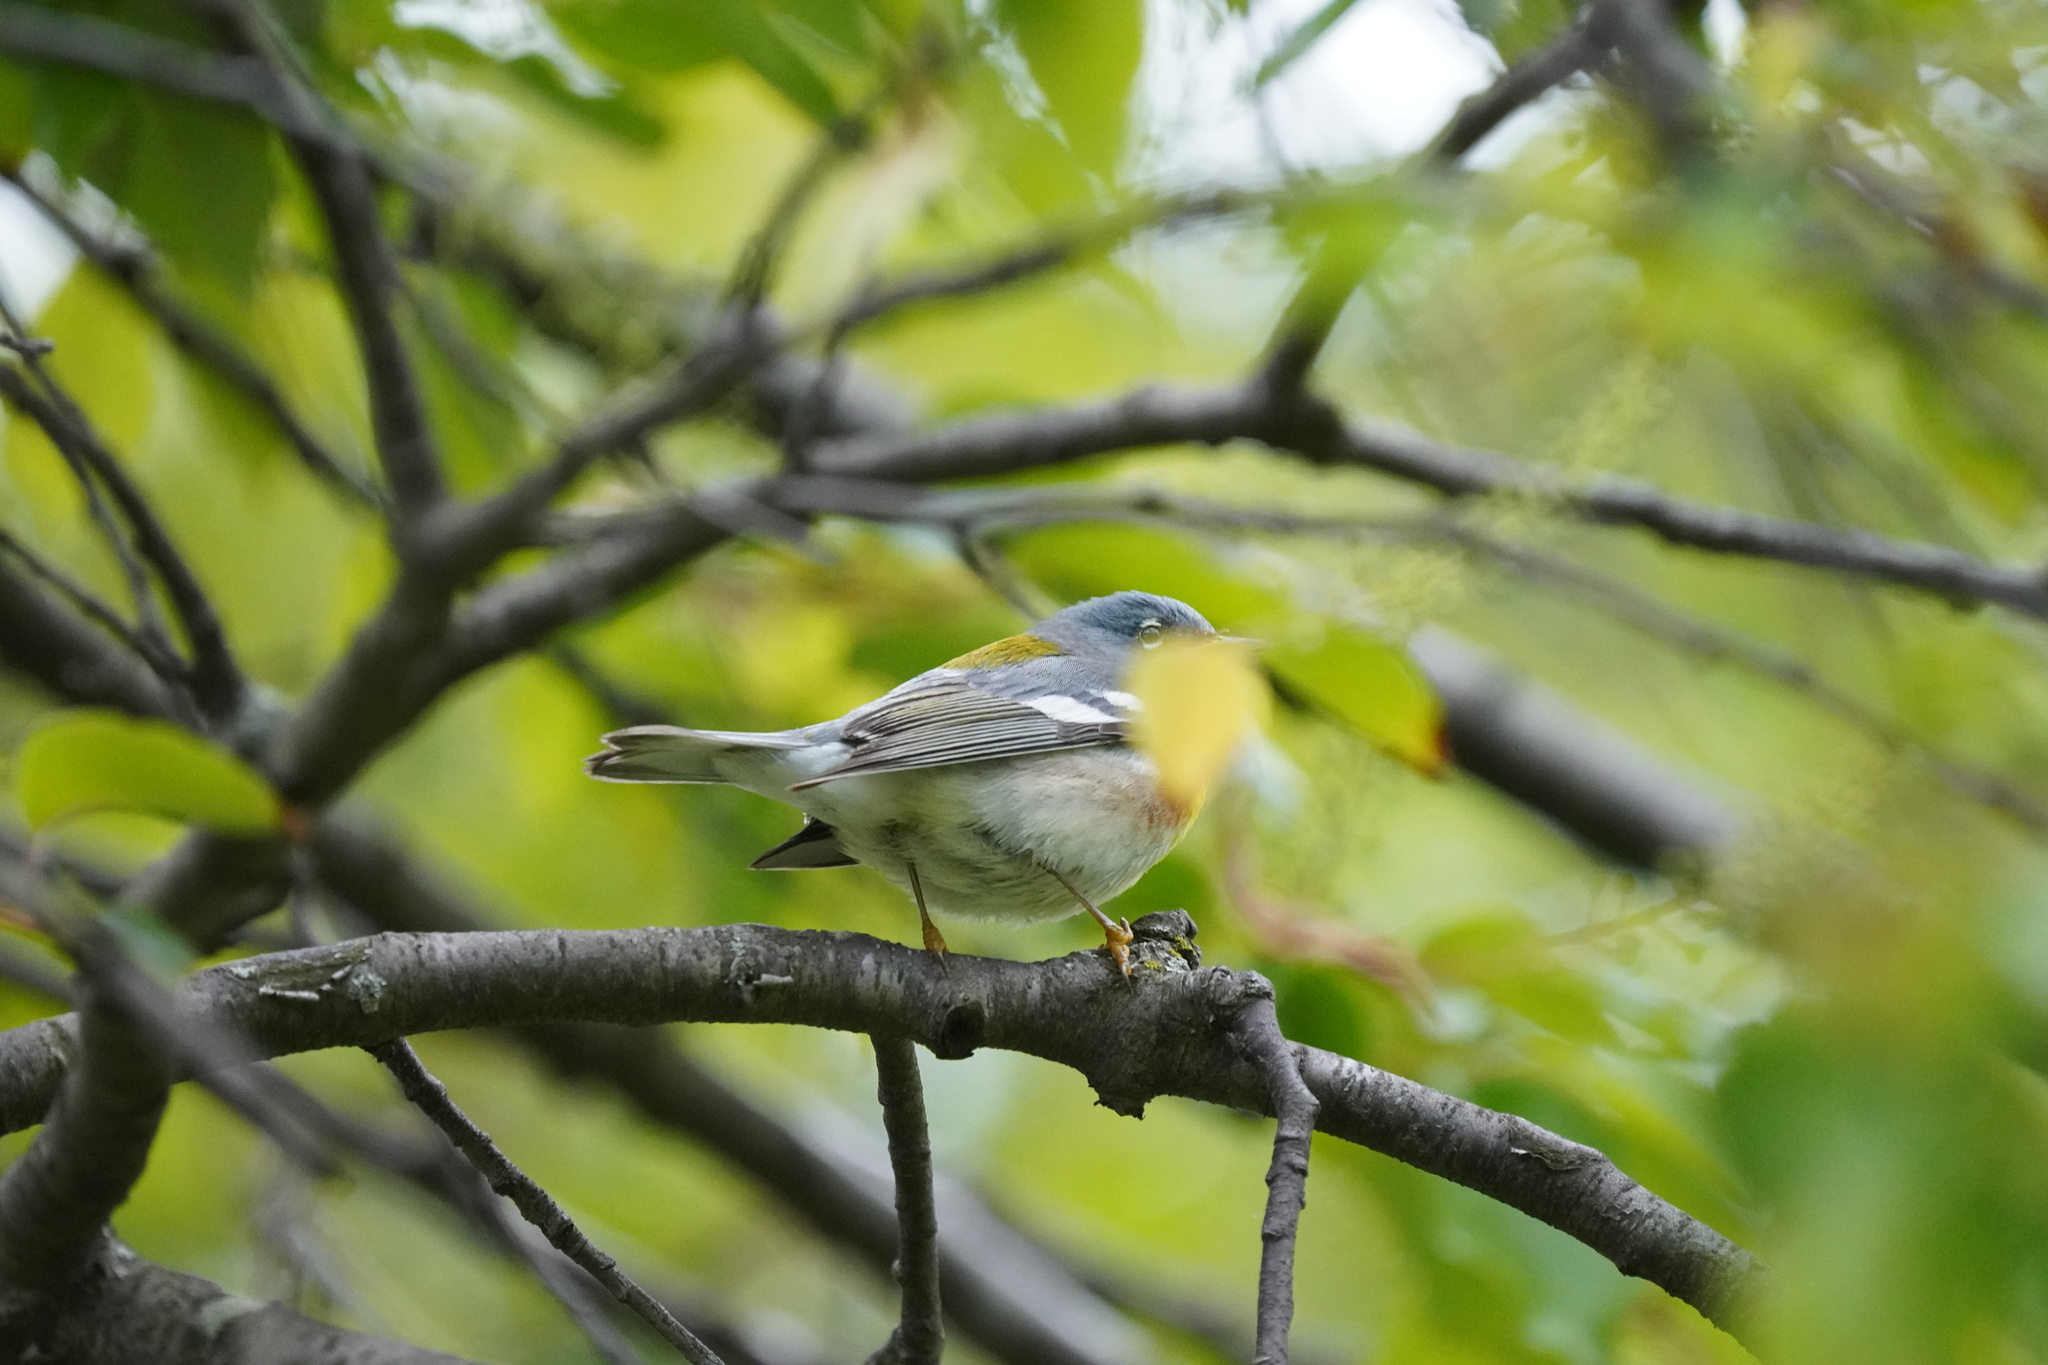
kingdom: Animalia
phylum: Chordata
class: Aves
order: Passeriformes
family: Parulidae
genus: Setophaga
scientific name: Setophaga americana
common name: Northern parula
